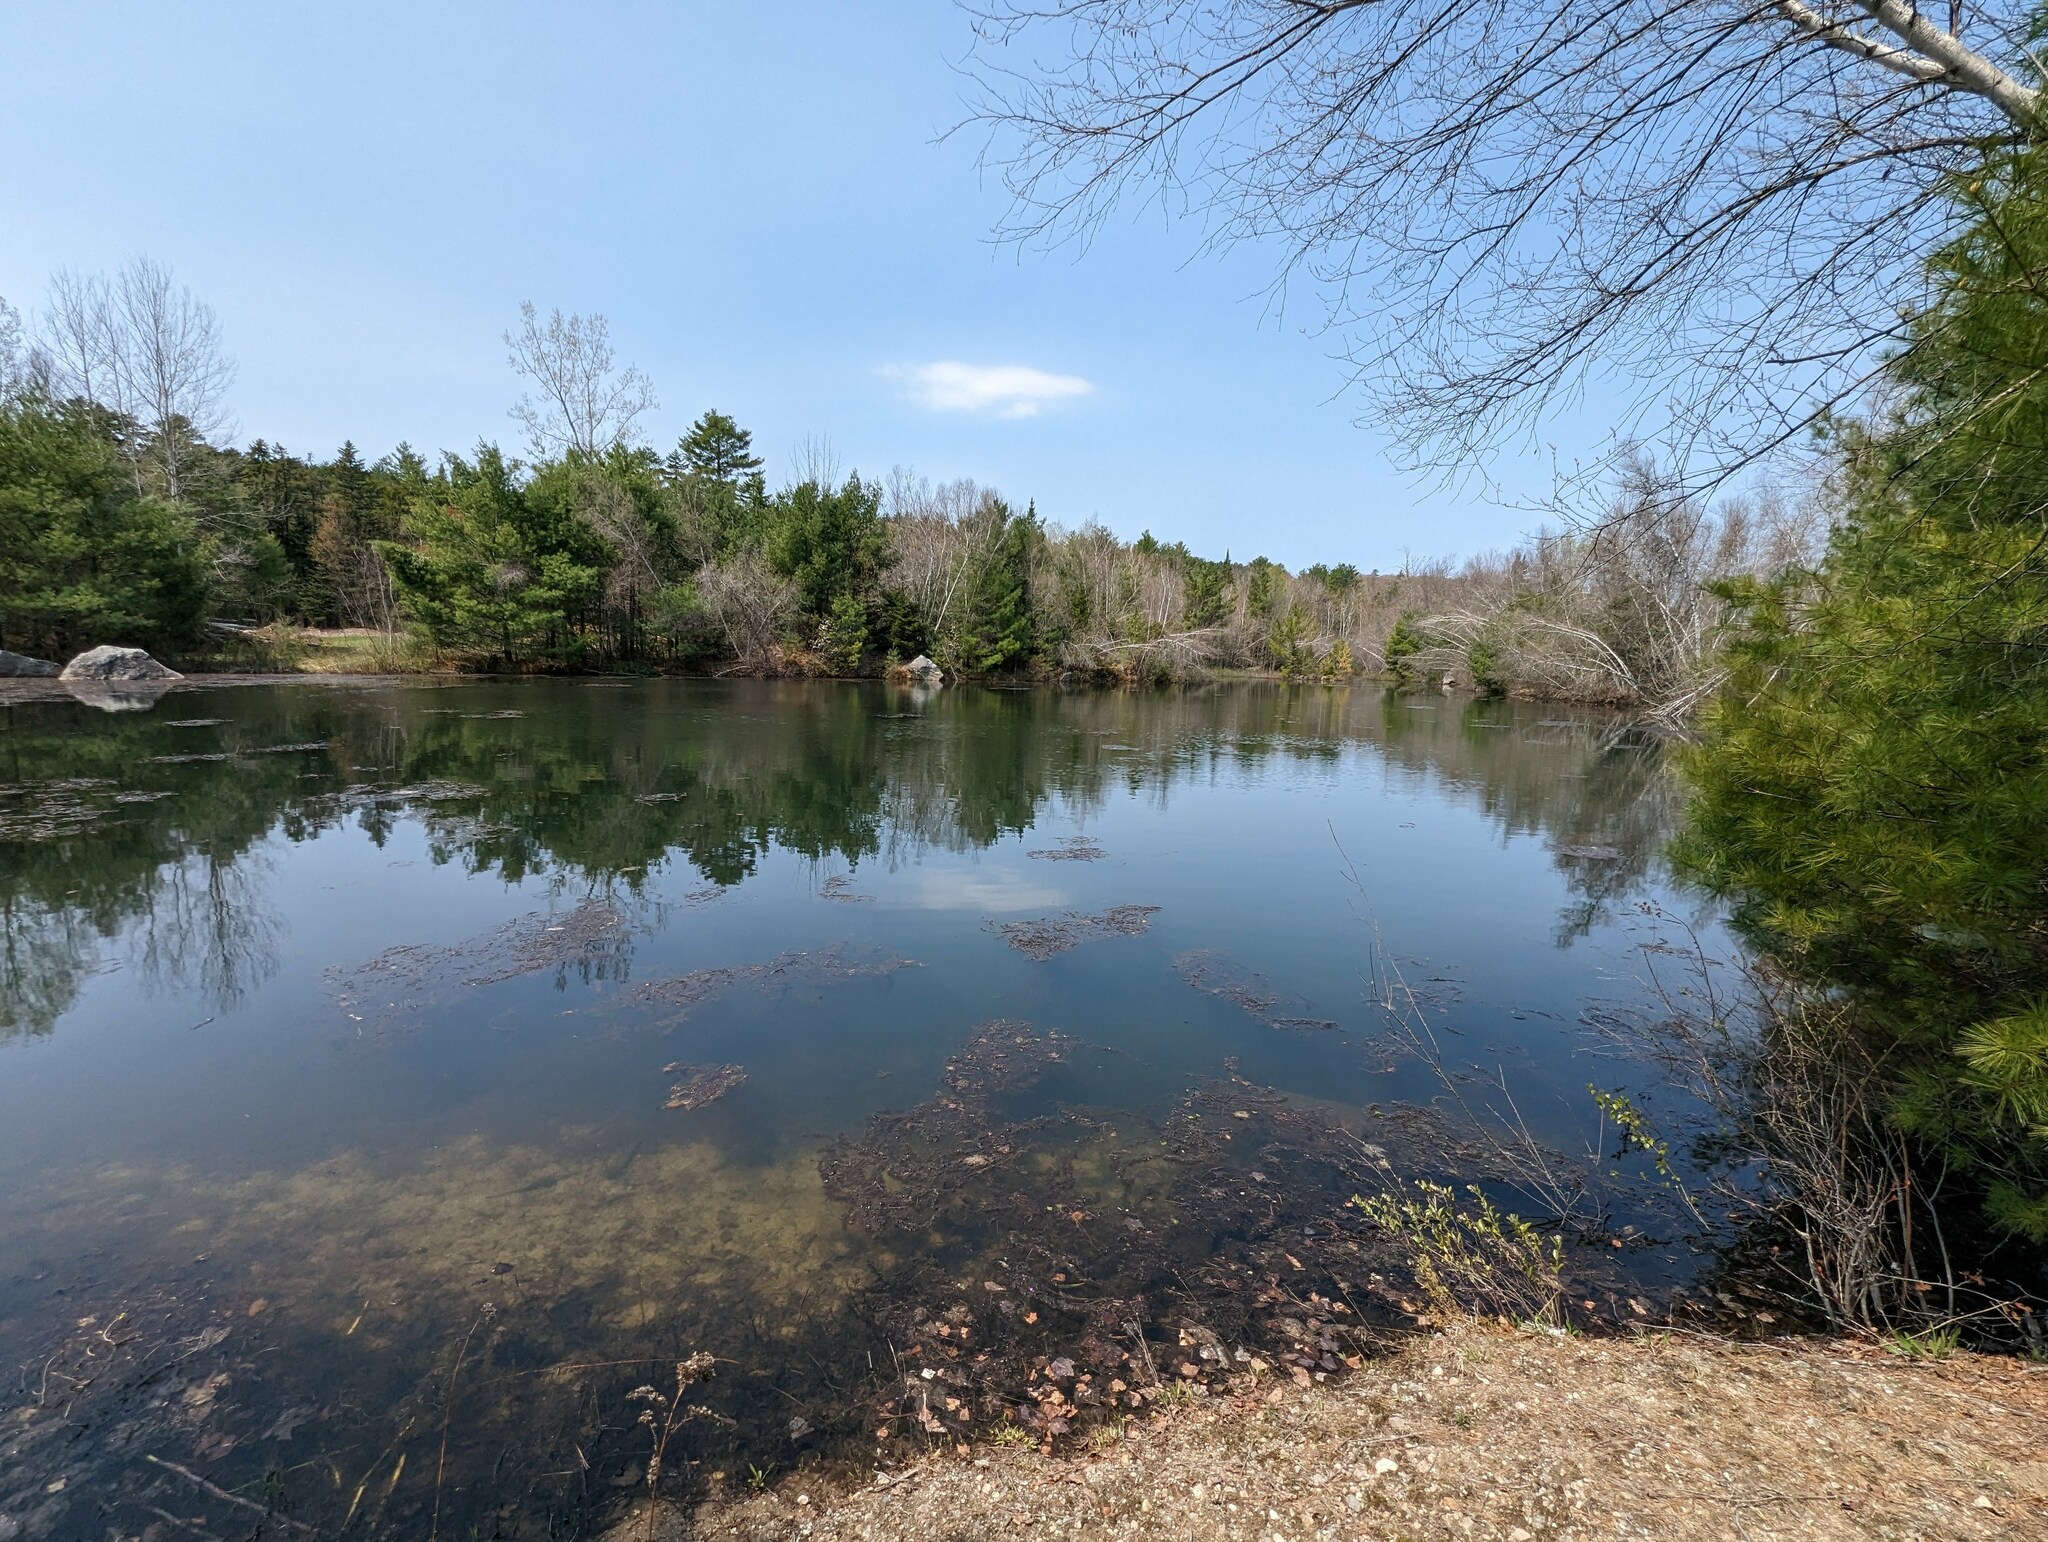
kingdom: Plantae
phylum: Tracheophyta
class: Pinopsida
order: Pinales
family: Pinaceae
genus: Pinus
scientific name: Pinus strobus
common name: Weymouth pine
